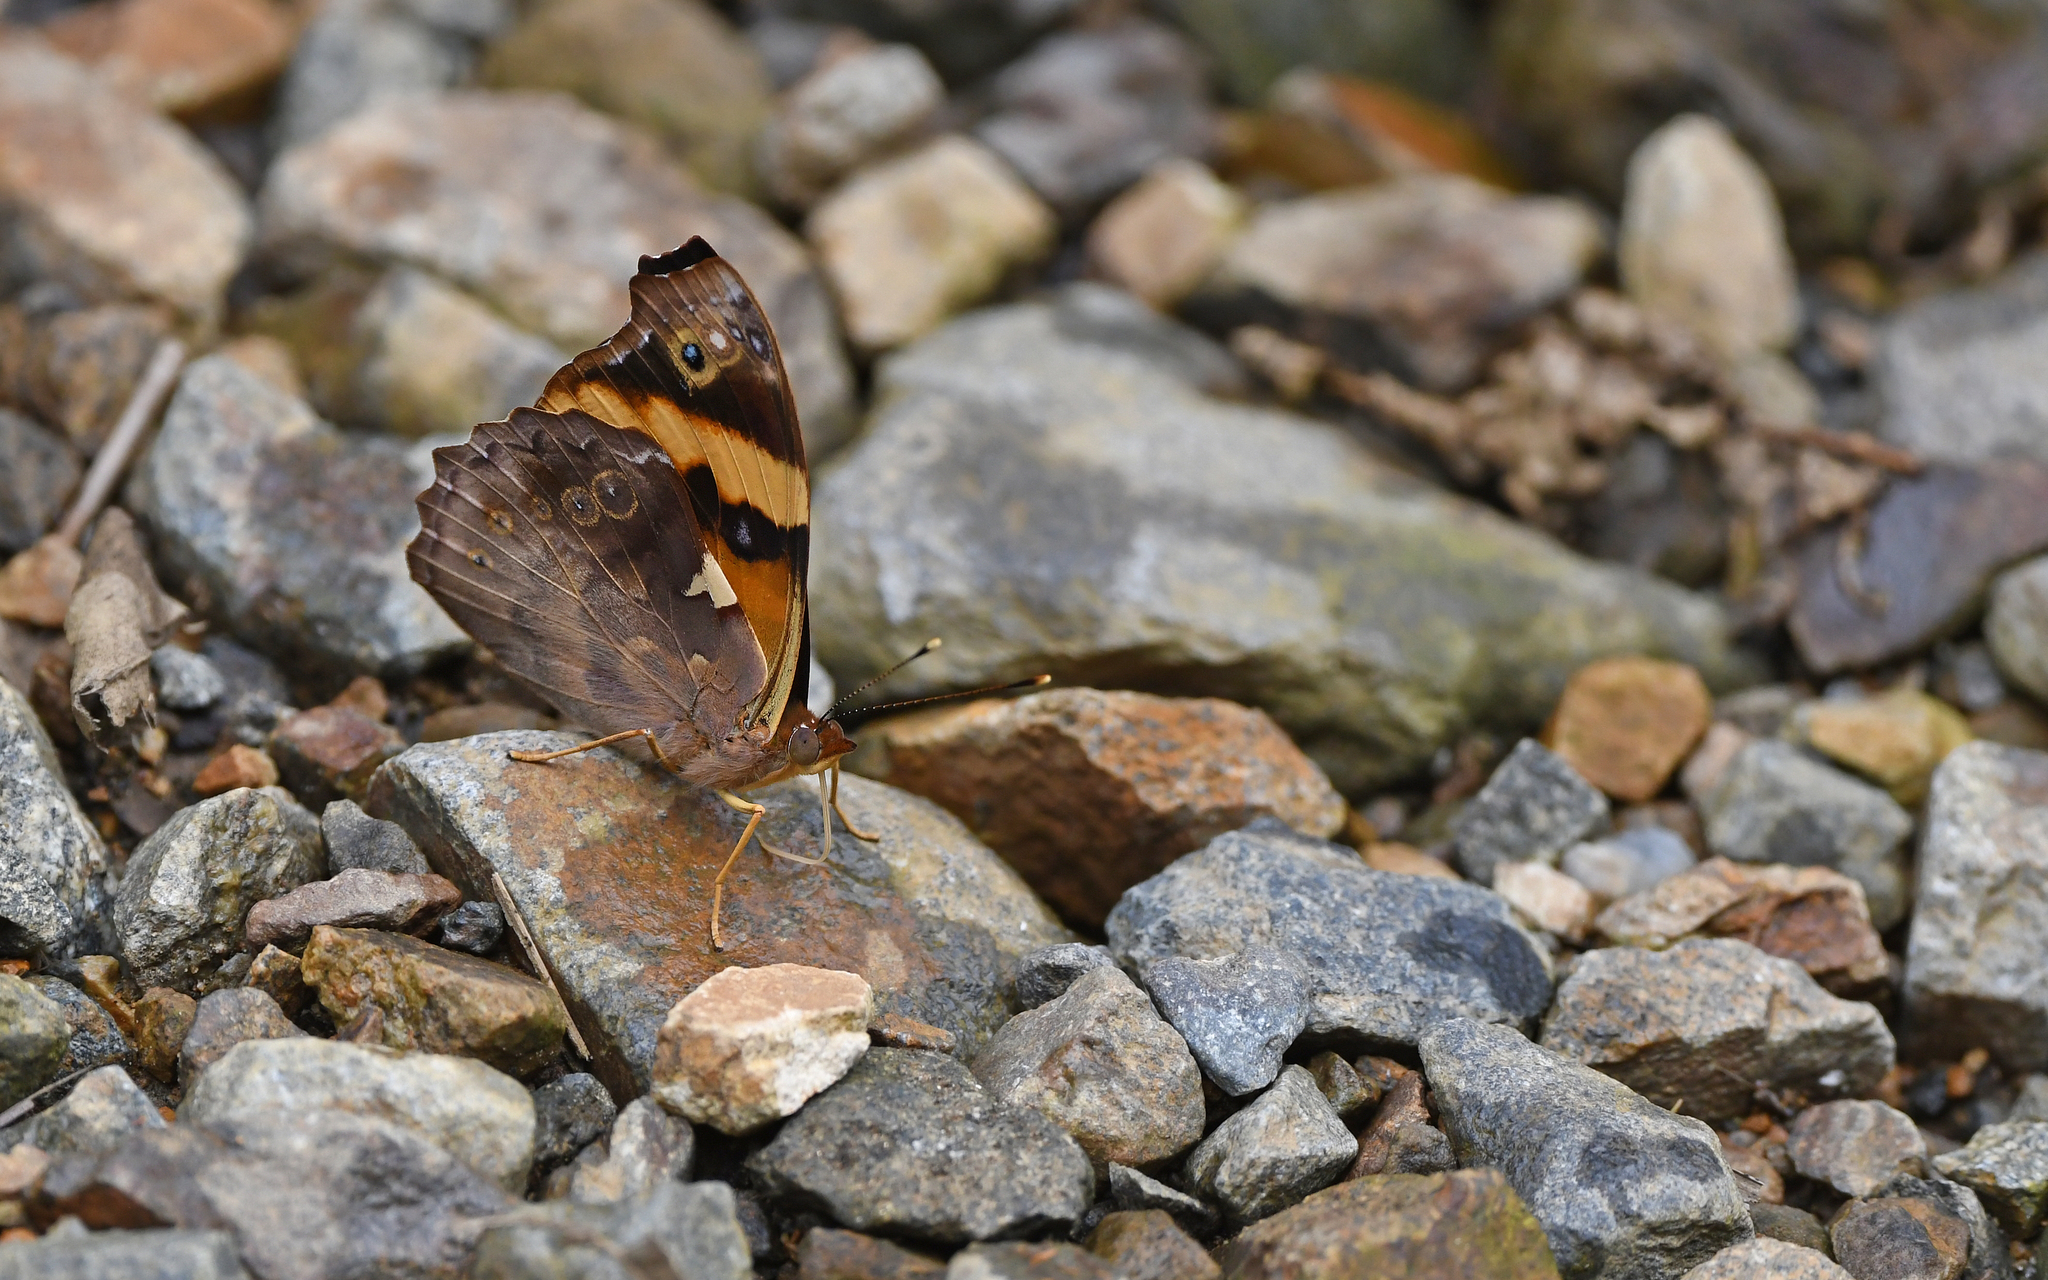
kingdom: Animalia
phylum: Arthropoda
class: Insecta
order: Lepidoptera
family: Nymphalidae
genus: Epiphile
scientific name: Epiphile orea
